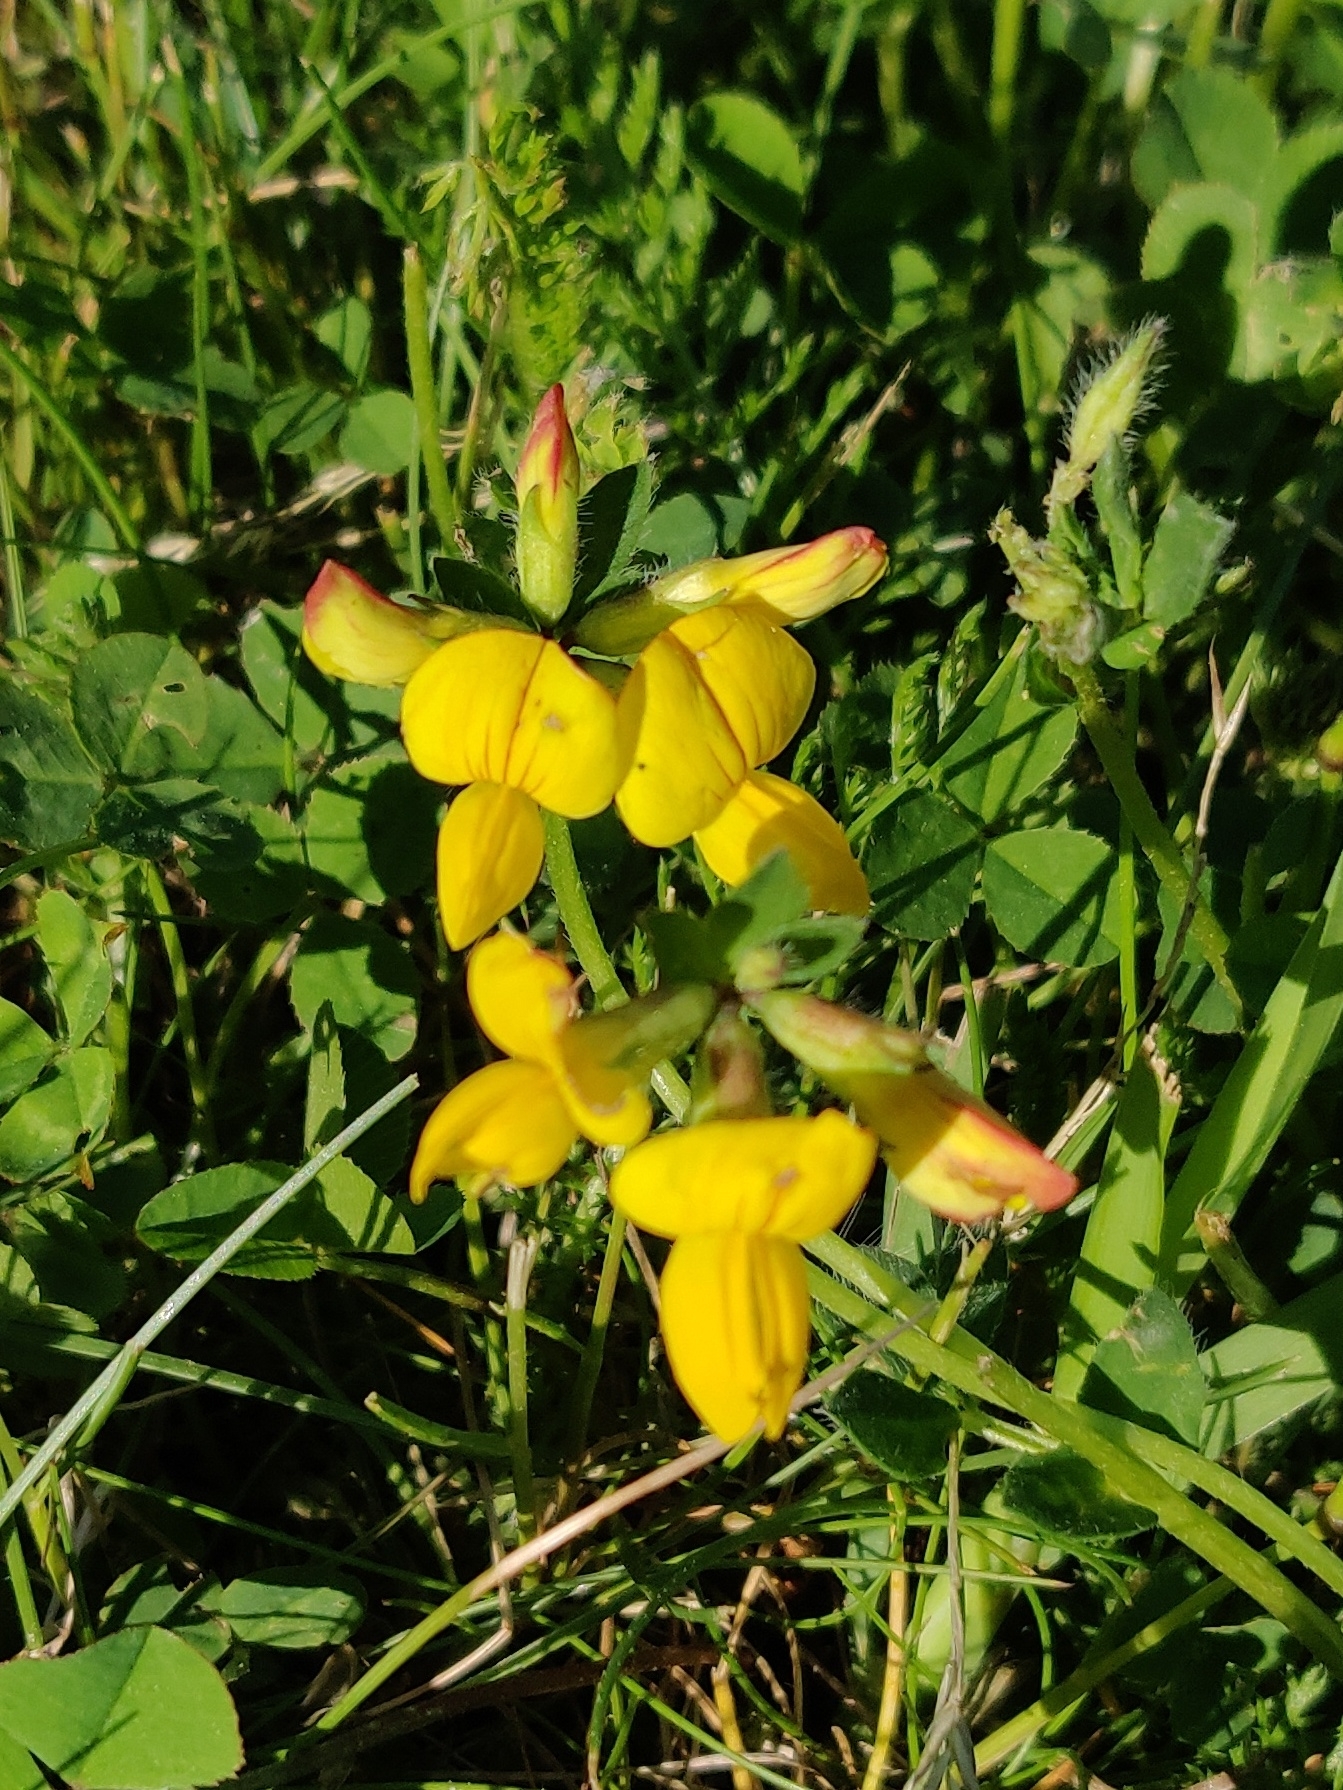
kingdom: Plantae
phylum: Tracheophyta
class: Magnoliopsida
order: Fabales
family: Fabaceae
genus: Lotus
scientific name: Lotus corniculatus
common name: Common bird's-foot-trefoil
